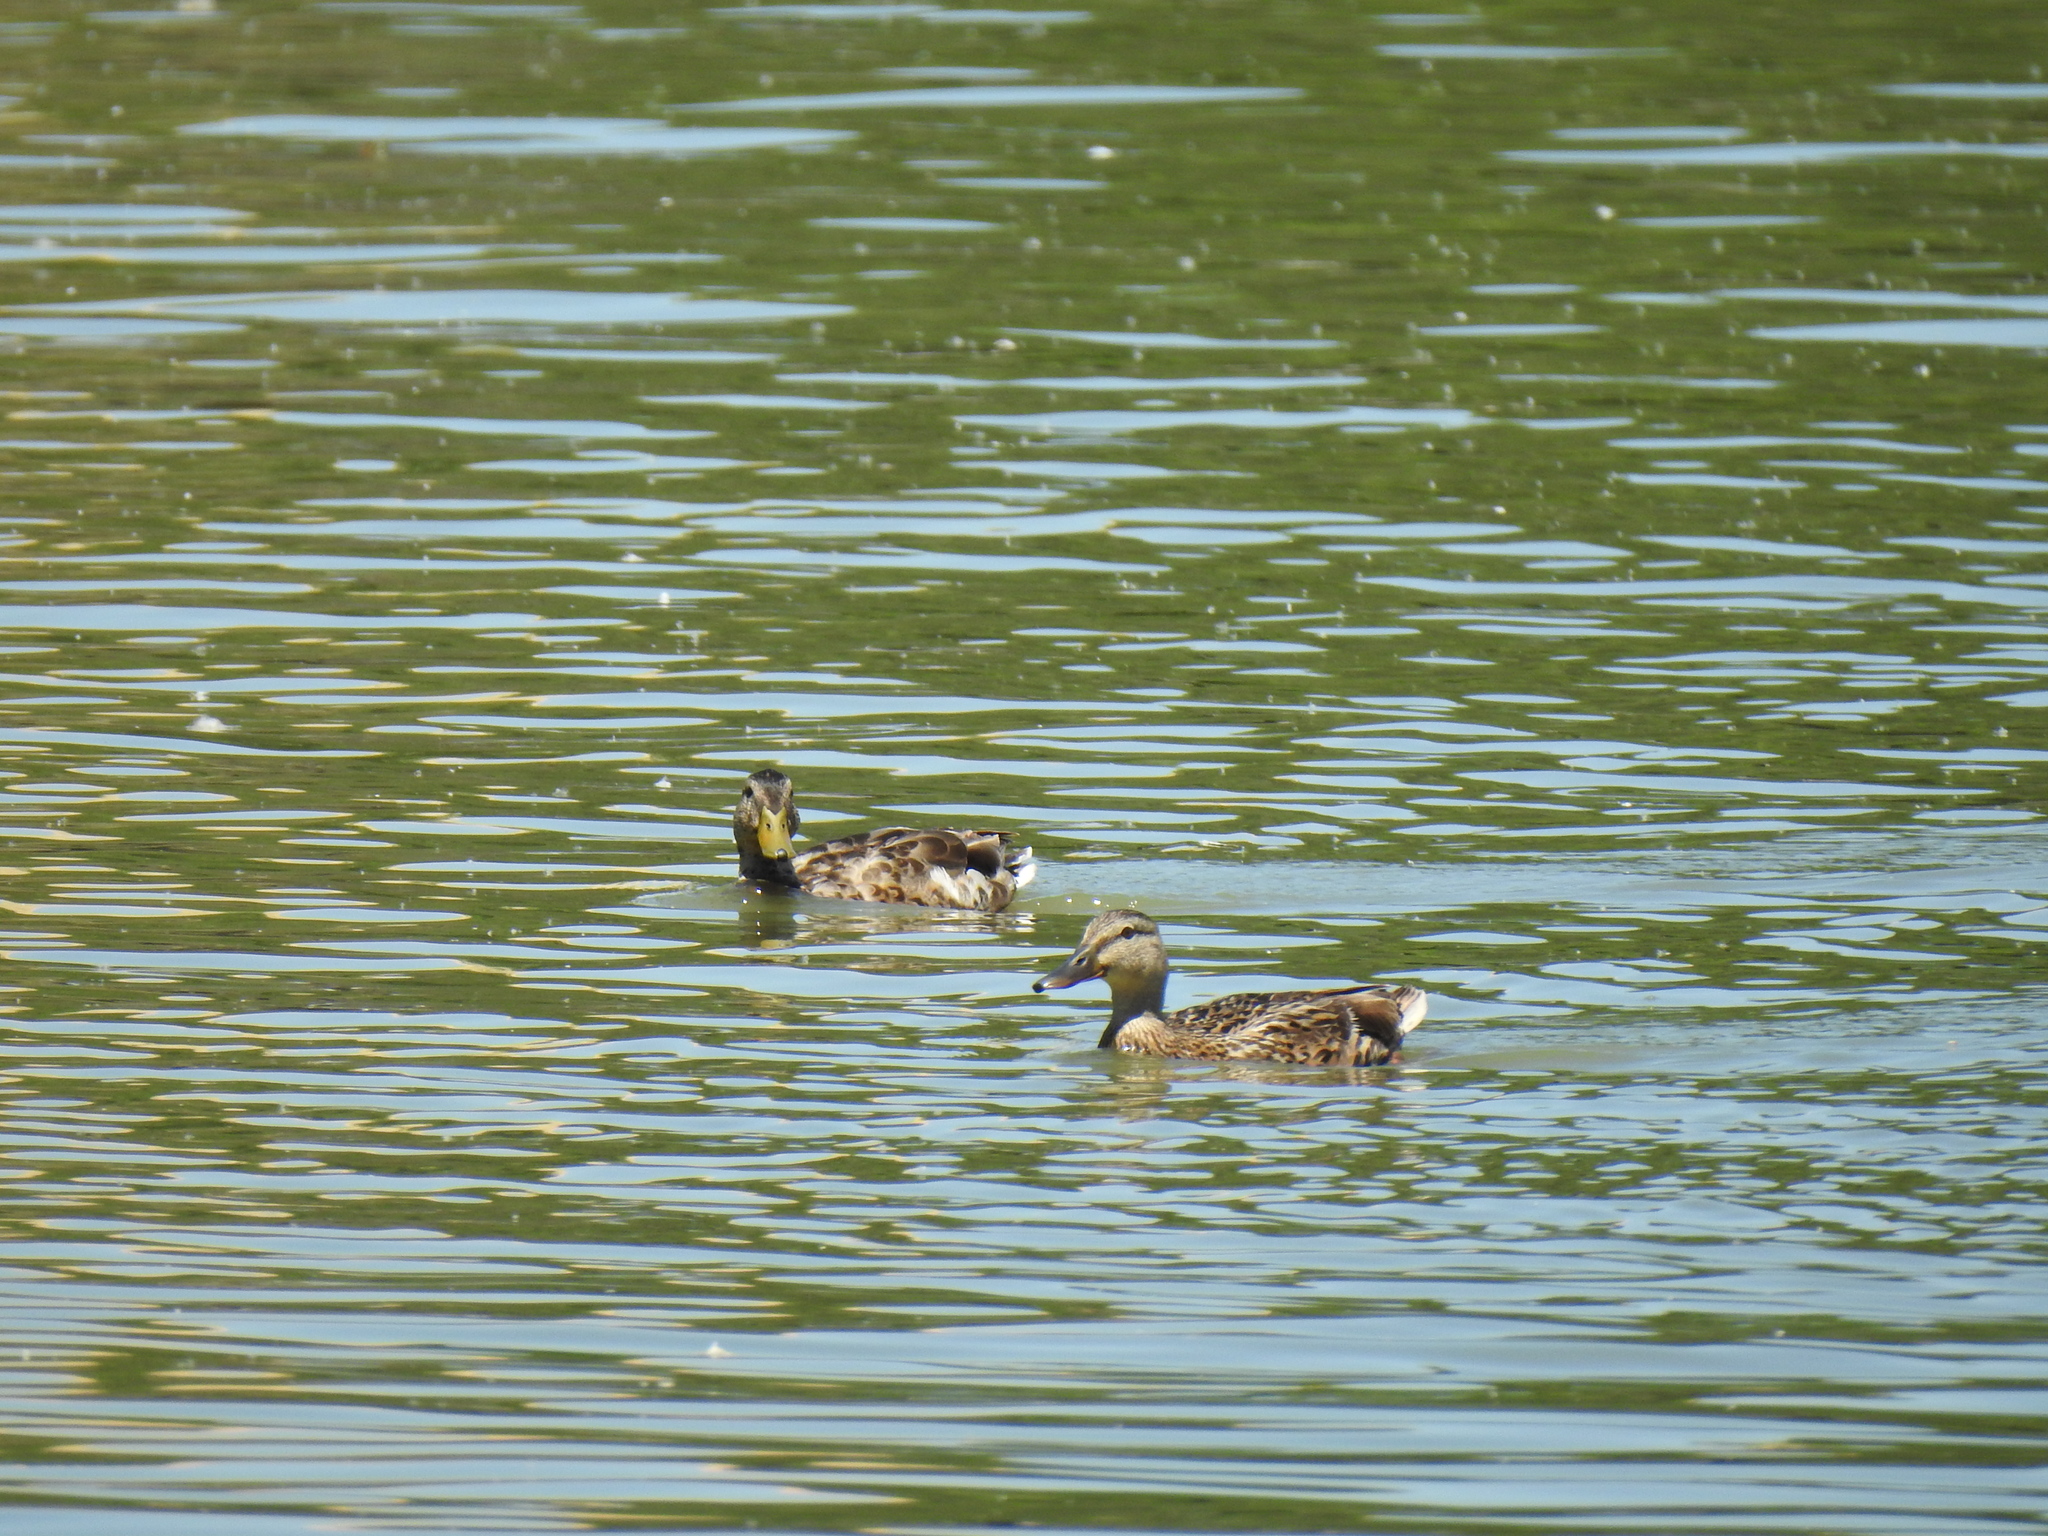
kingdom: Animalia
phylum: Chordata
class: Aves
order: Anseriformes
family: Anatidae
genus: Anas
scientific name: Anas platyrhynchos
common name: Mallard
